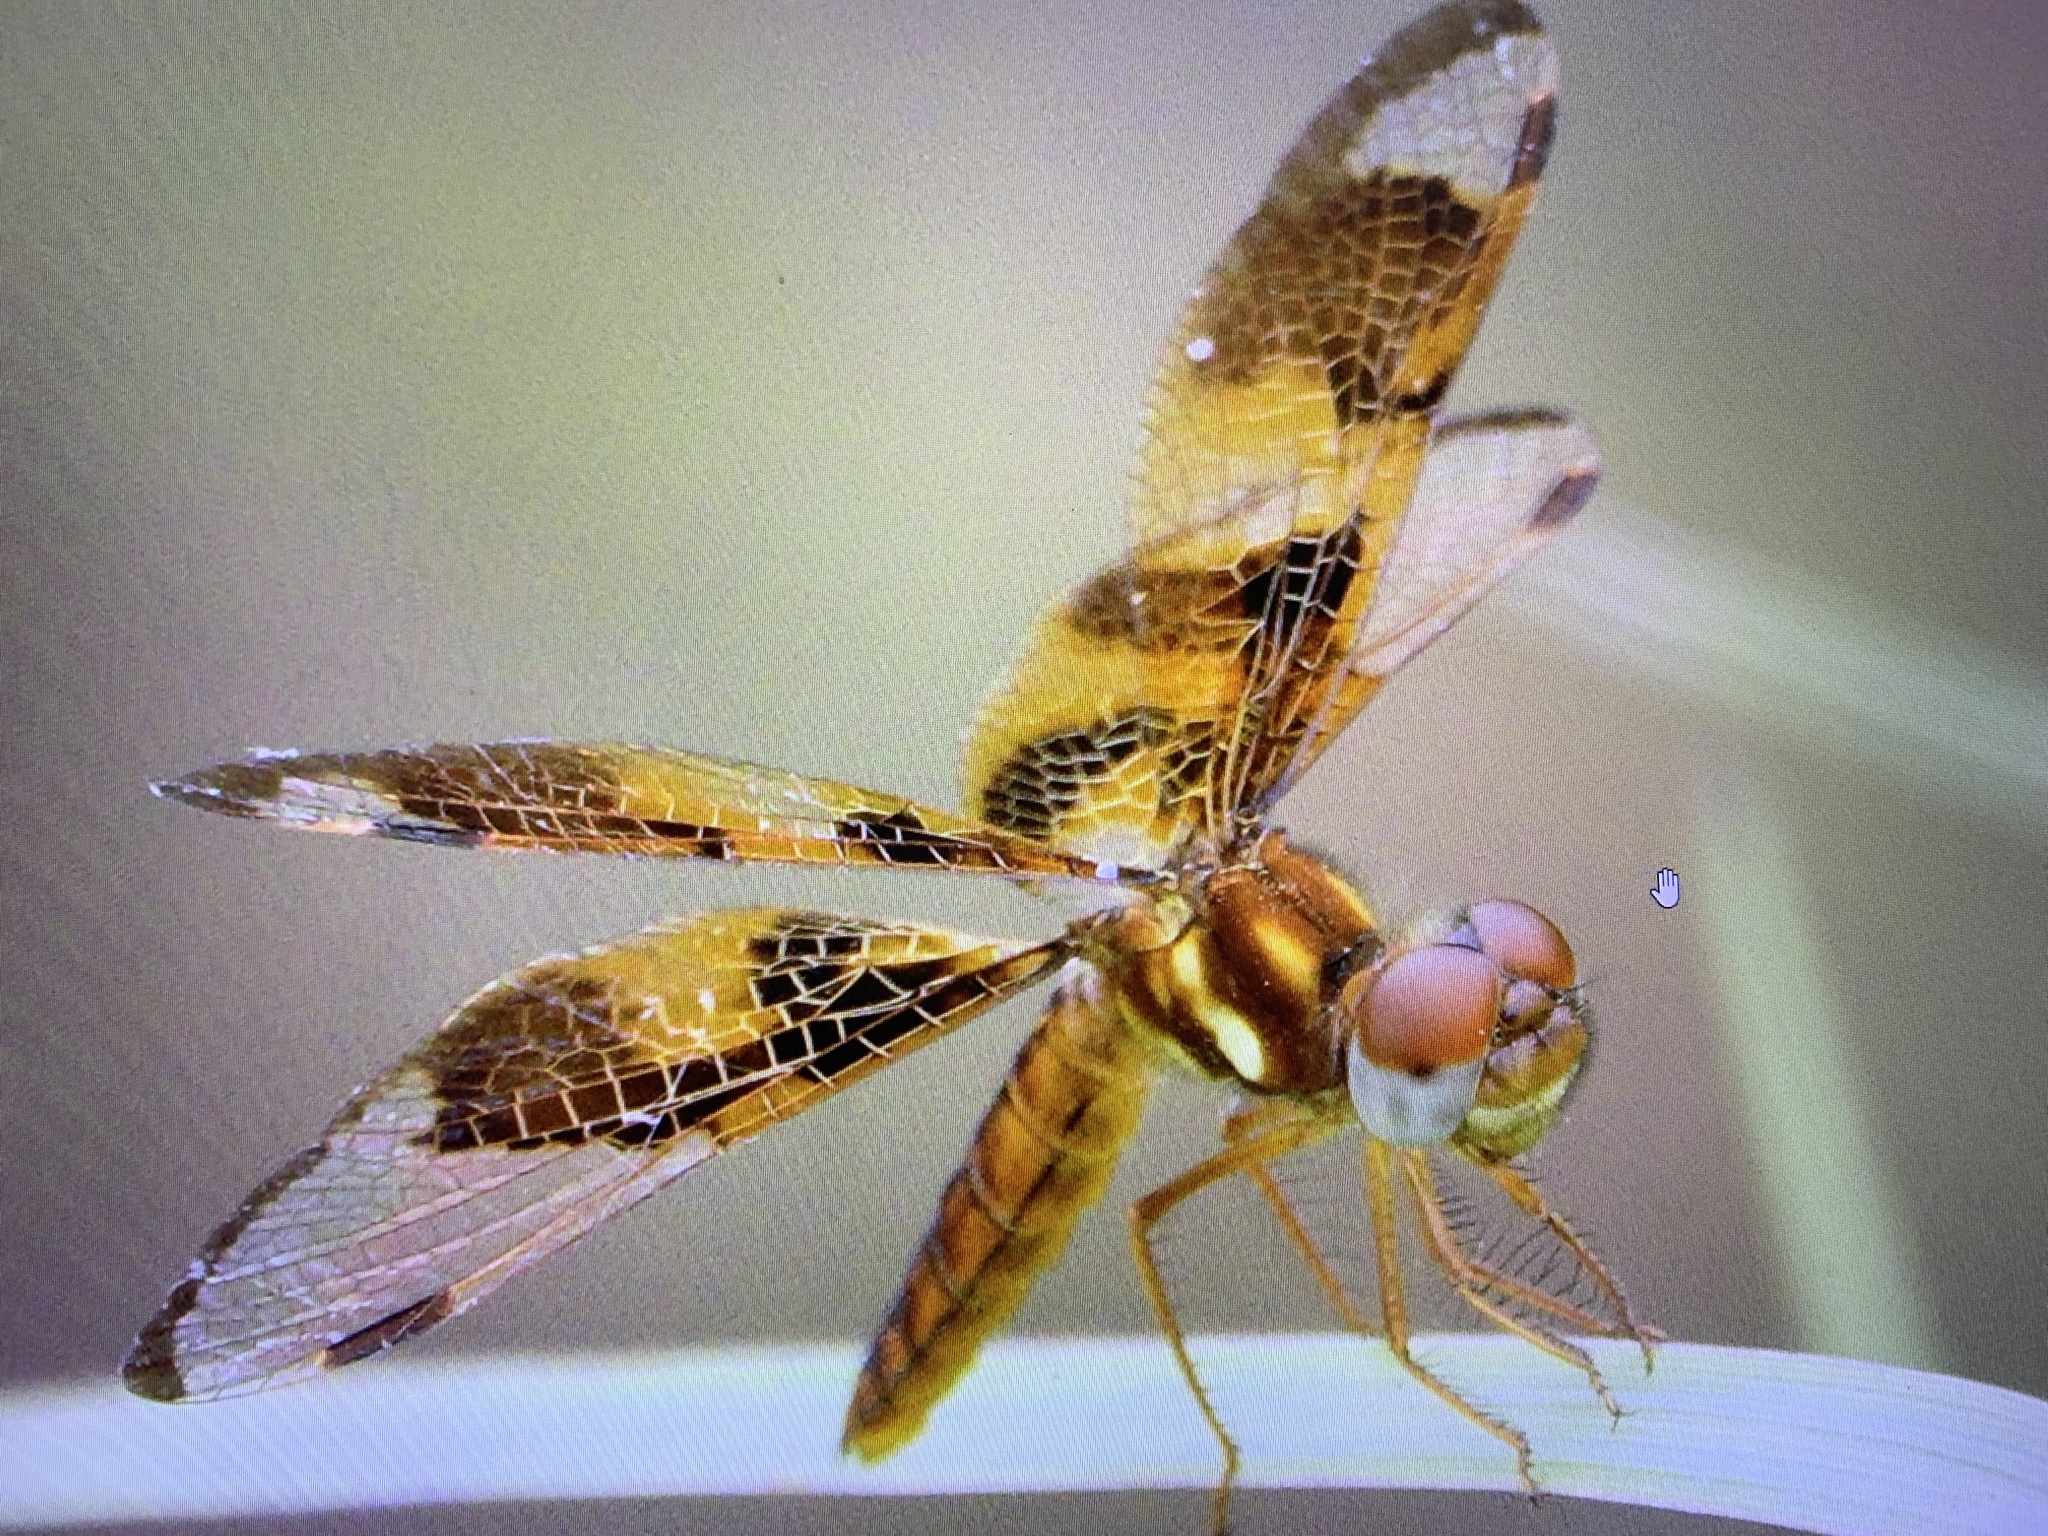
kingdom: Animalia
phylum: Arthropoda
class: Insecta
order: Odonata
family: Libellulidae
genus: Perithemis
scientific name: Perithemis tenera
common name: Eastern amberwing
